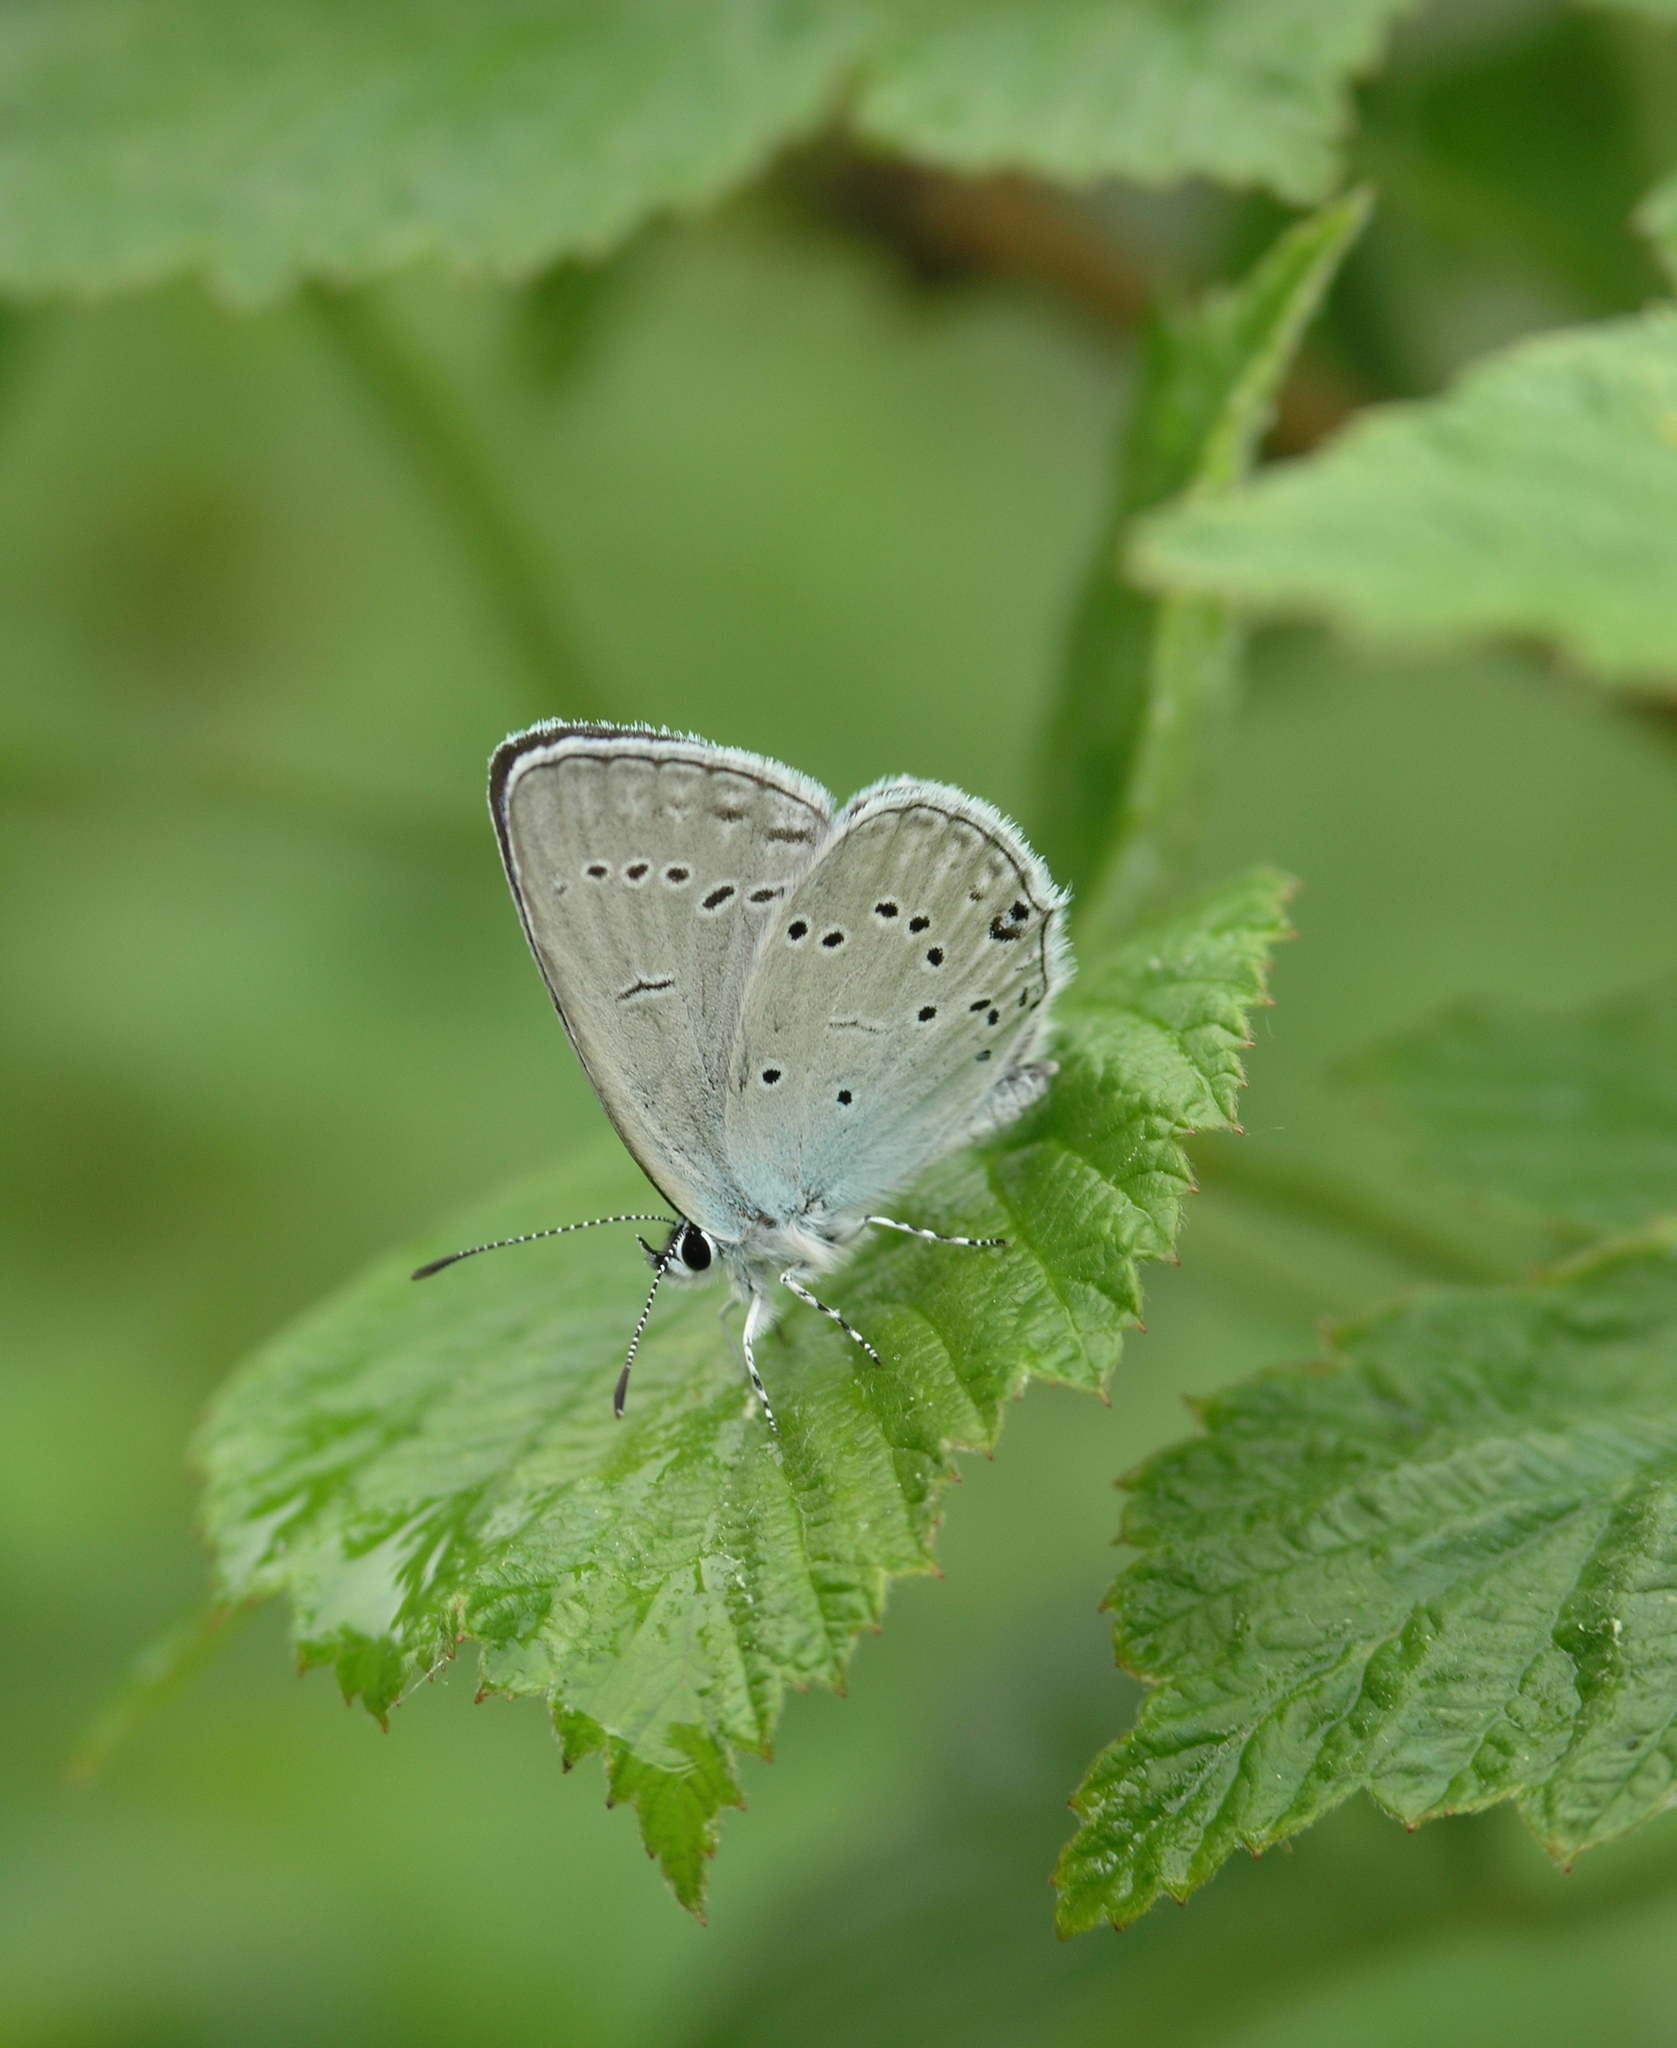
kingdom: Animalia
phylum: Arthropoda
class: Insecta
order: Lepidoptera
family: Lycaenidae
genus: Elkalyce
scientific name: Elkalyce alcetas
